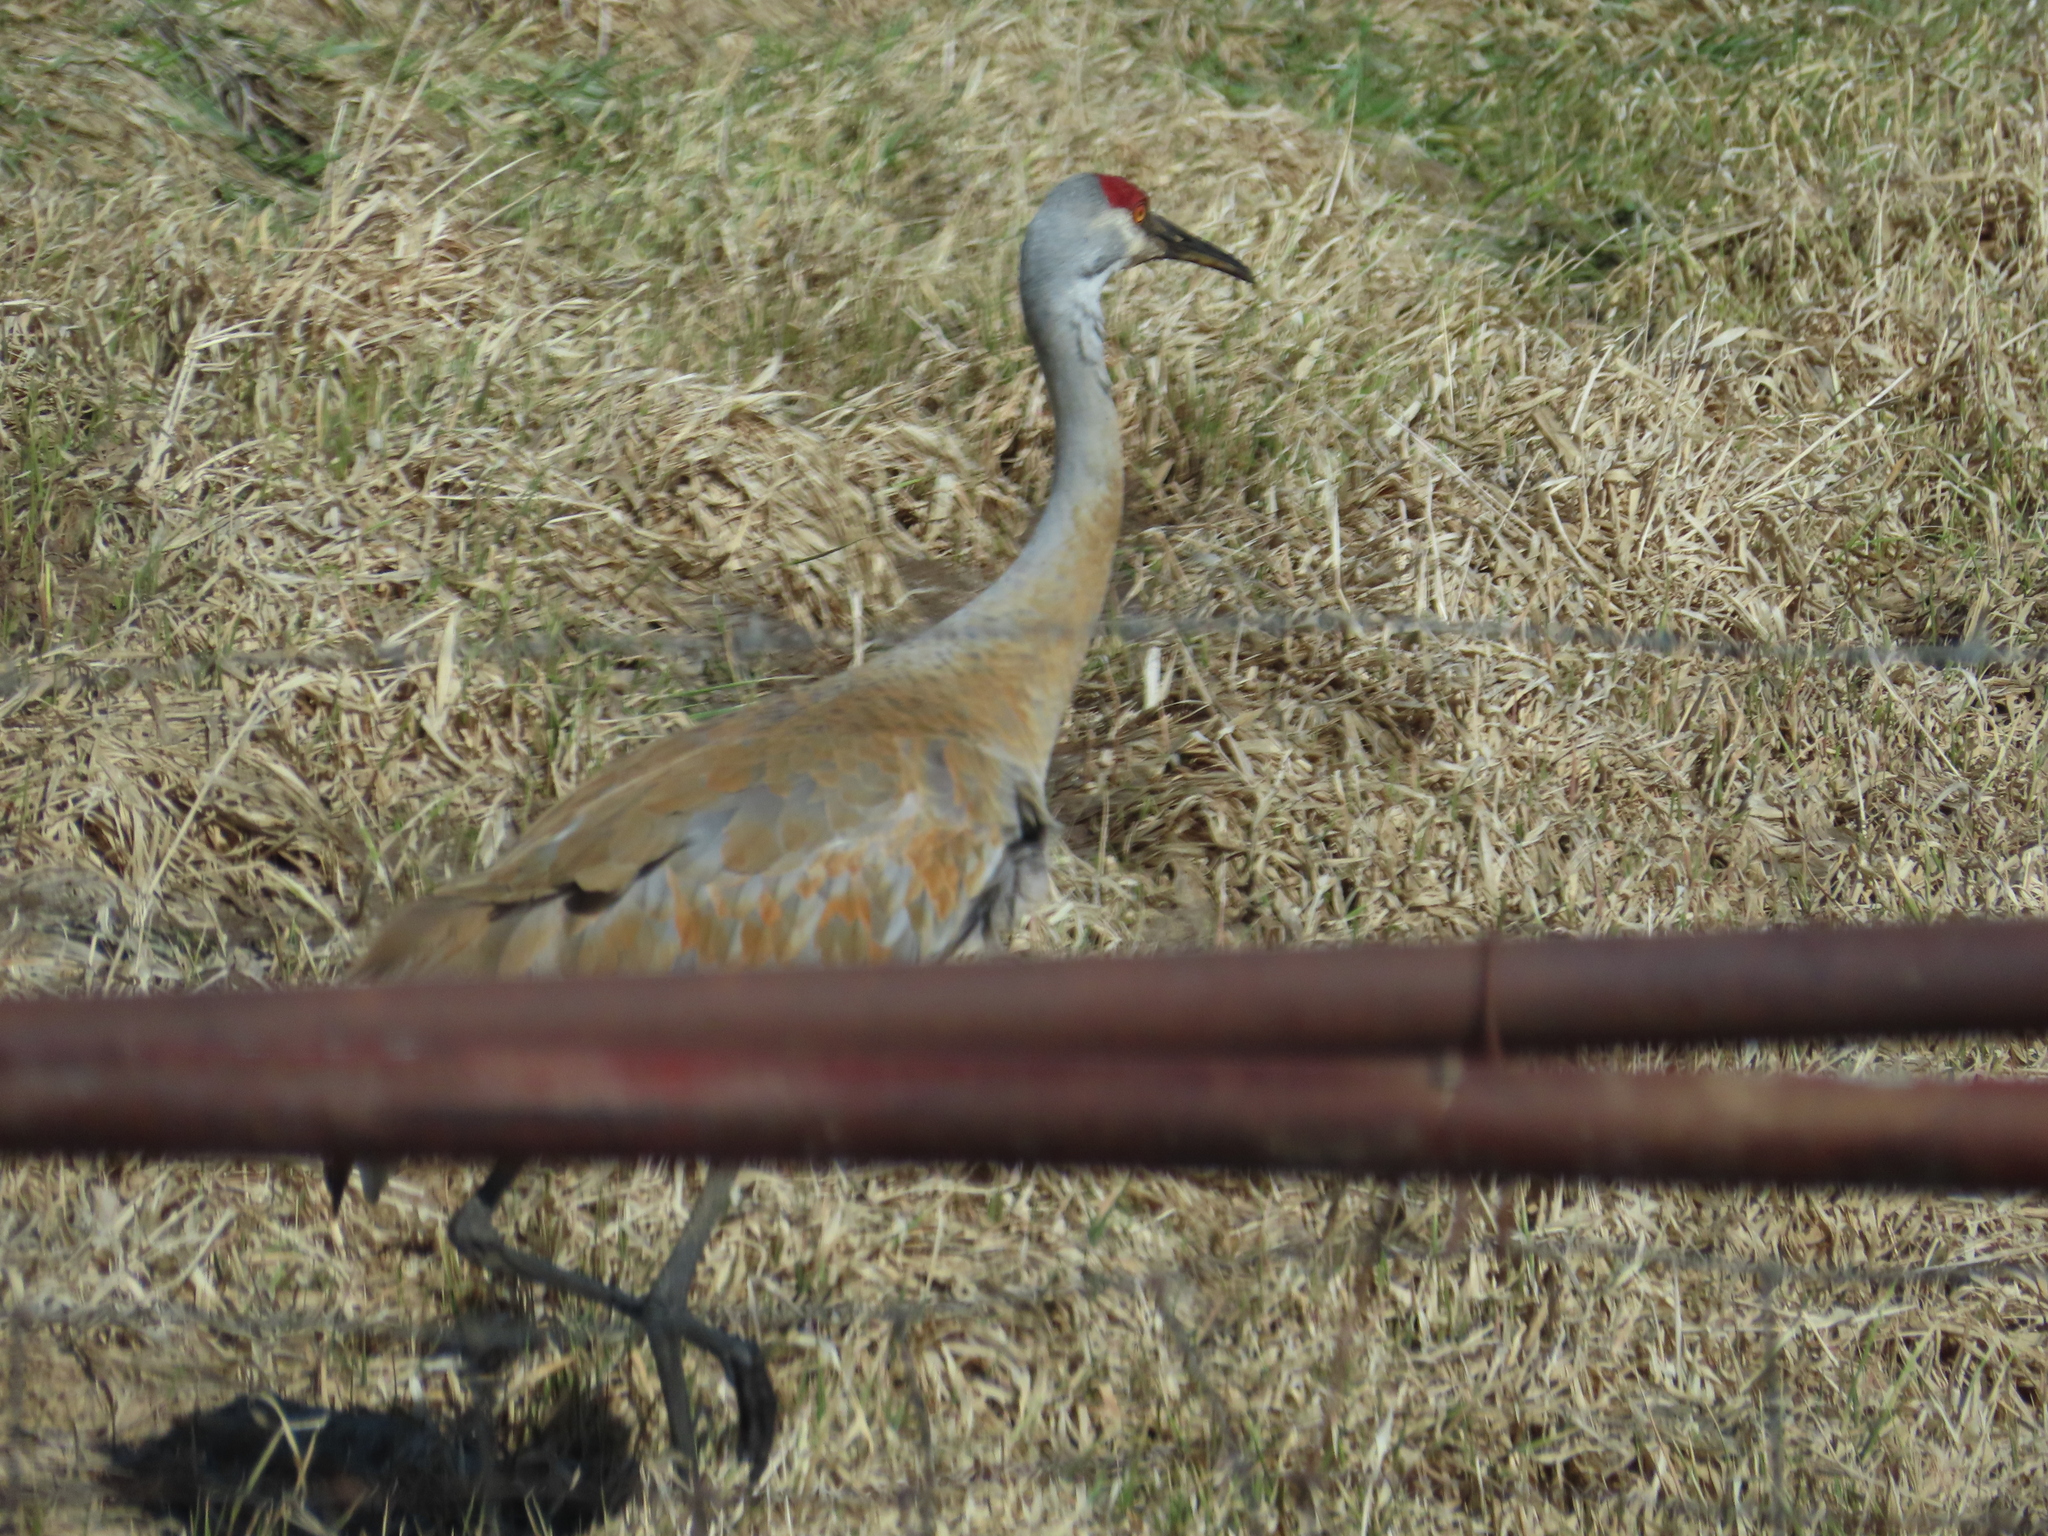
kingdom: Animalia
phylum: Chordata
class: Aves
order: Gruiformes
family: Gruidae
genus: Grus
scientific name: Grus canadensis
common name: Sandhill crane
